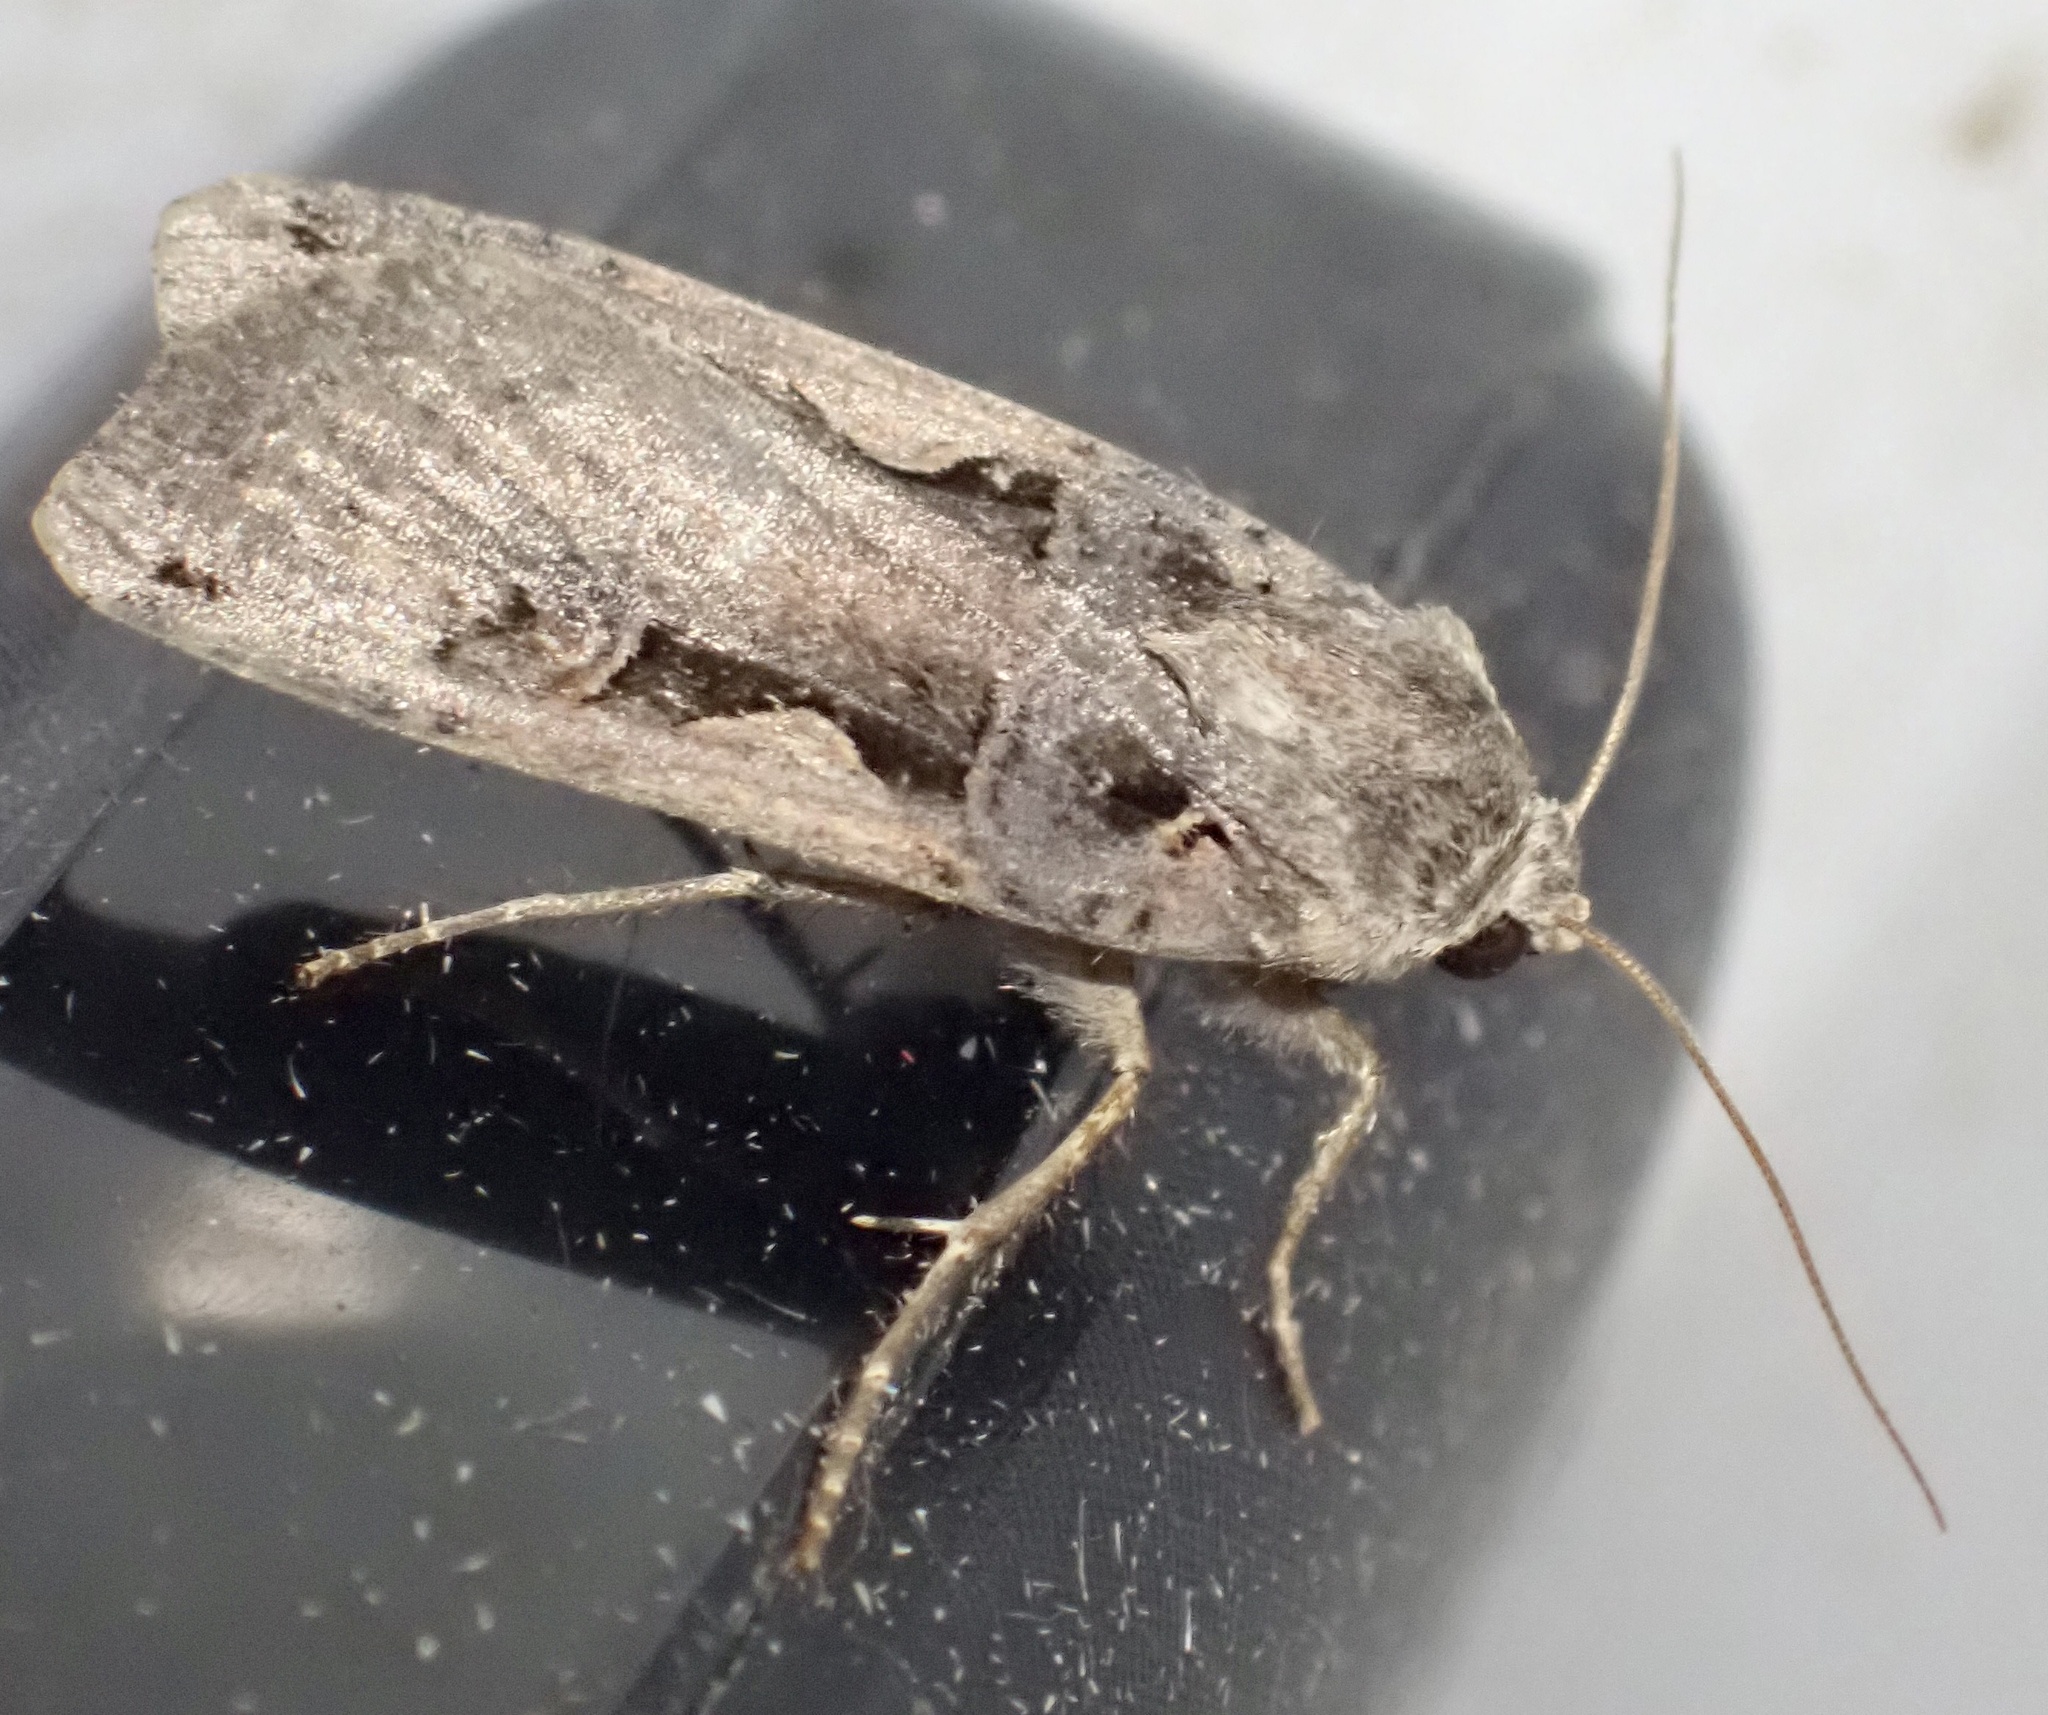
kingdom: Animalia
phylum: Arthropoda
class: Insecta
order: Lepidoptera
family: Noctuidae
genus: Xestia
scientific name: Xestia c-nigrum
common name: Setaceous hebrew character
